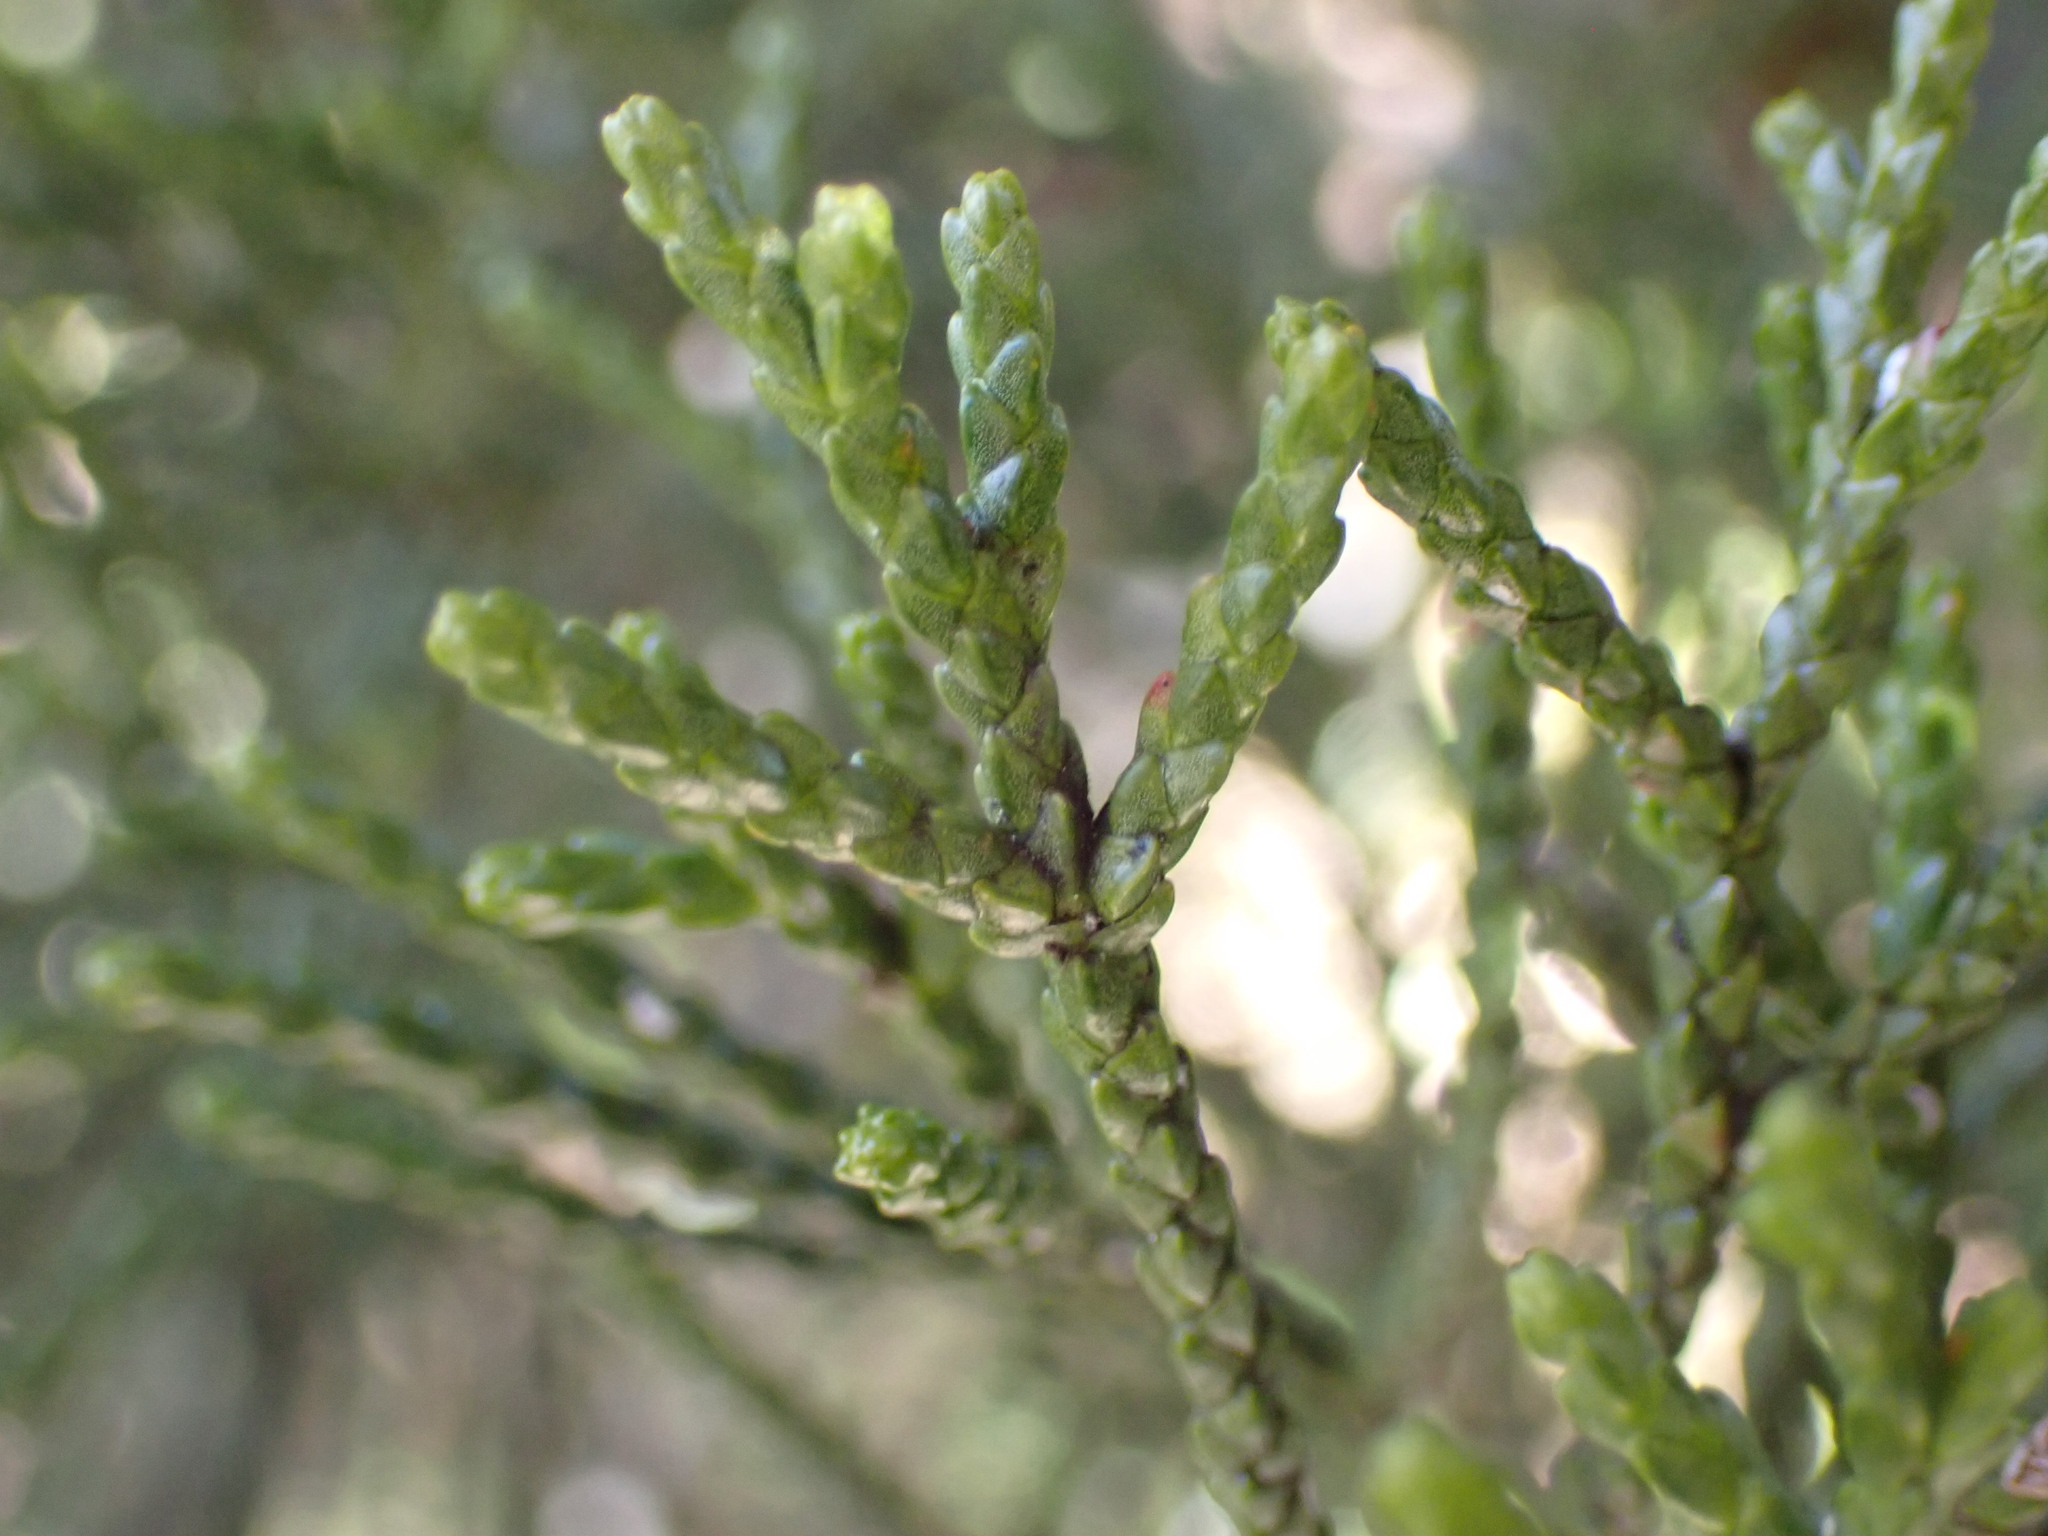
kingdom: Plantae
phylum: Tracheophyta
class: Pinopsida
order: Pinales
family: Podocarpaceae
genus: Halocarpus
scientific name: Halocarpus biformis
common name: Alpine tarwood
